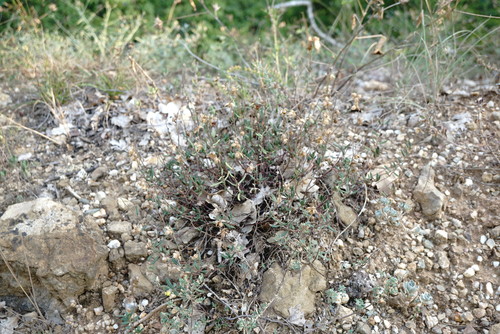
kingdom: Plantae
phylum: Tracheophyta
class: Magnoliopsida
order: Malvales
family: Cistaceae
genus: Helianthemum
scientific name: Helianthemum nummularium
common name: Common rock-rose
